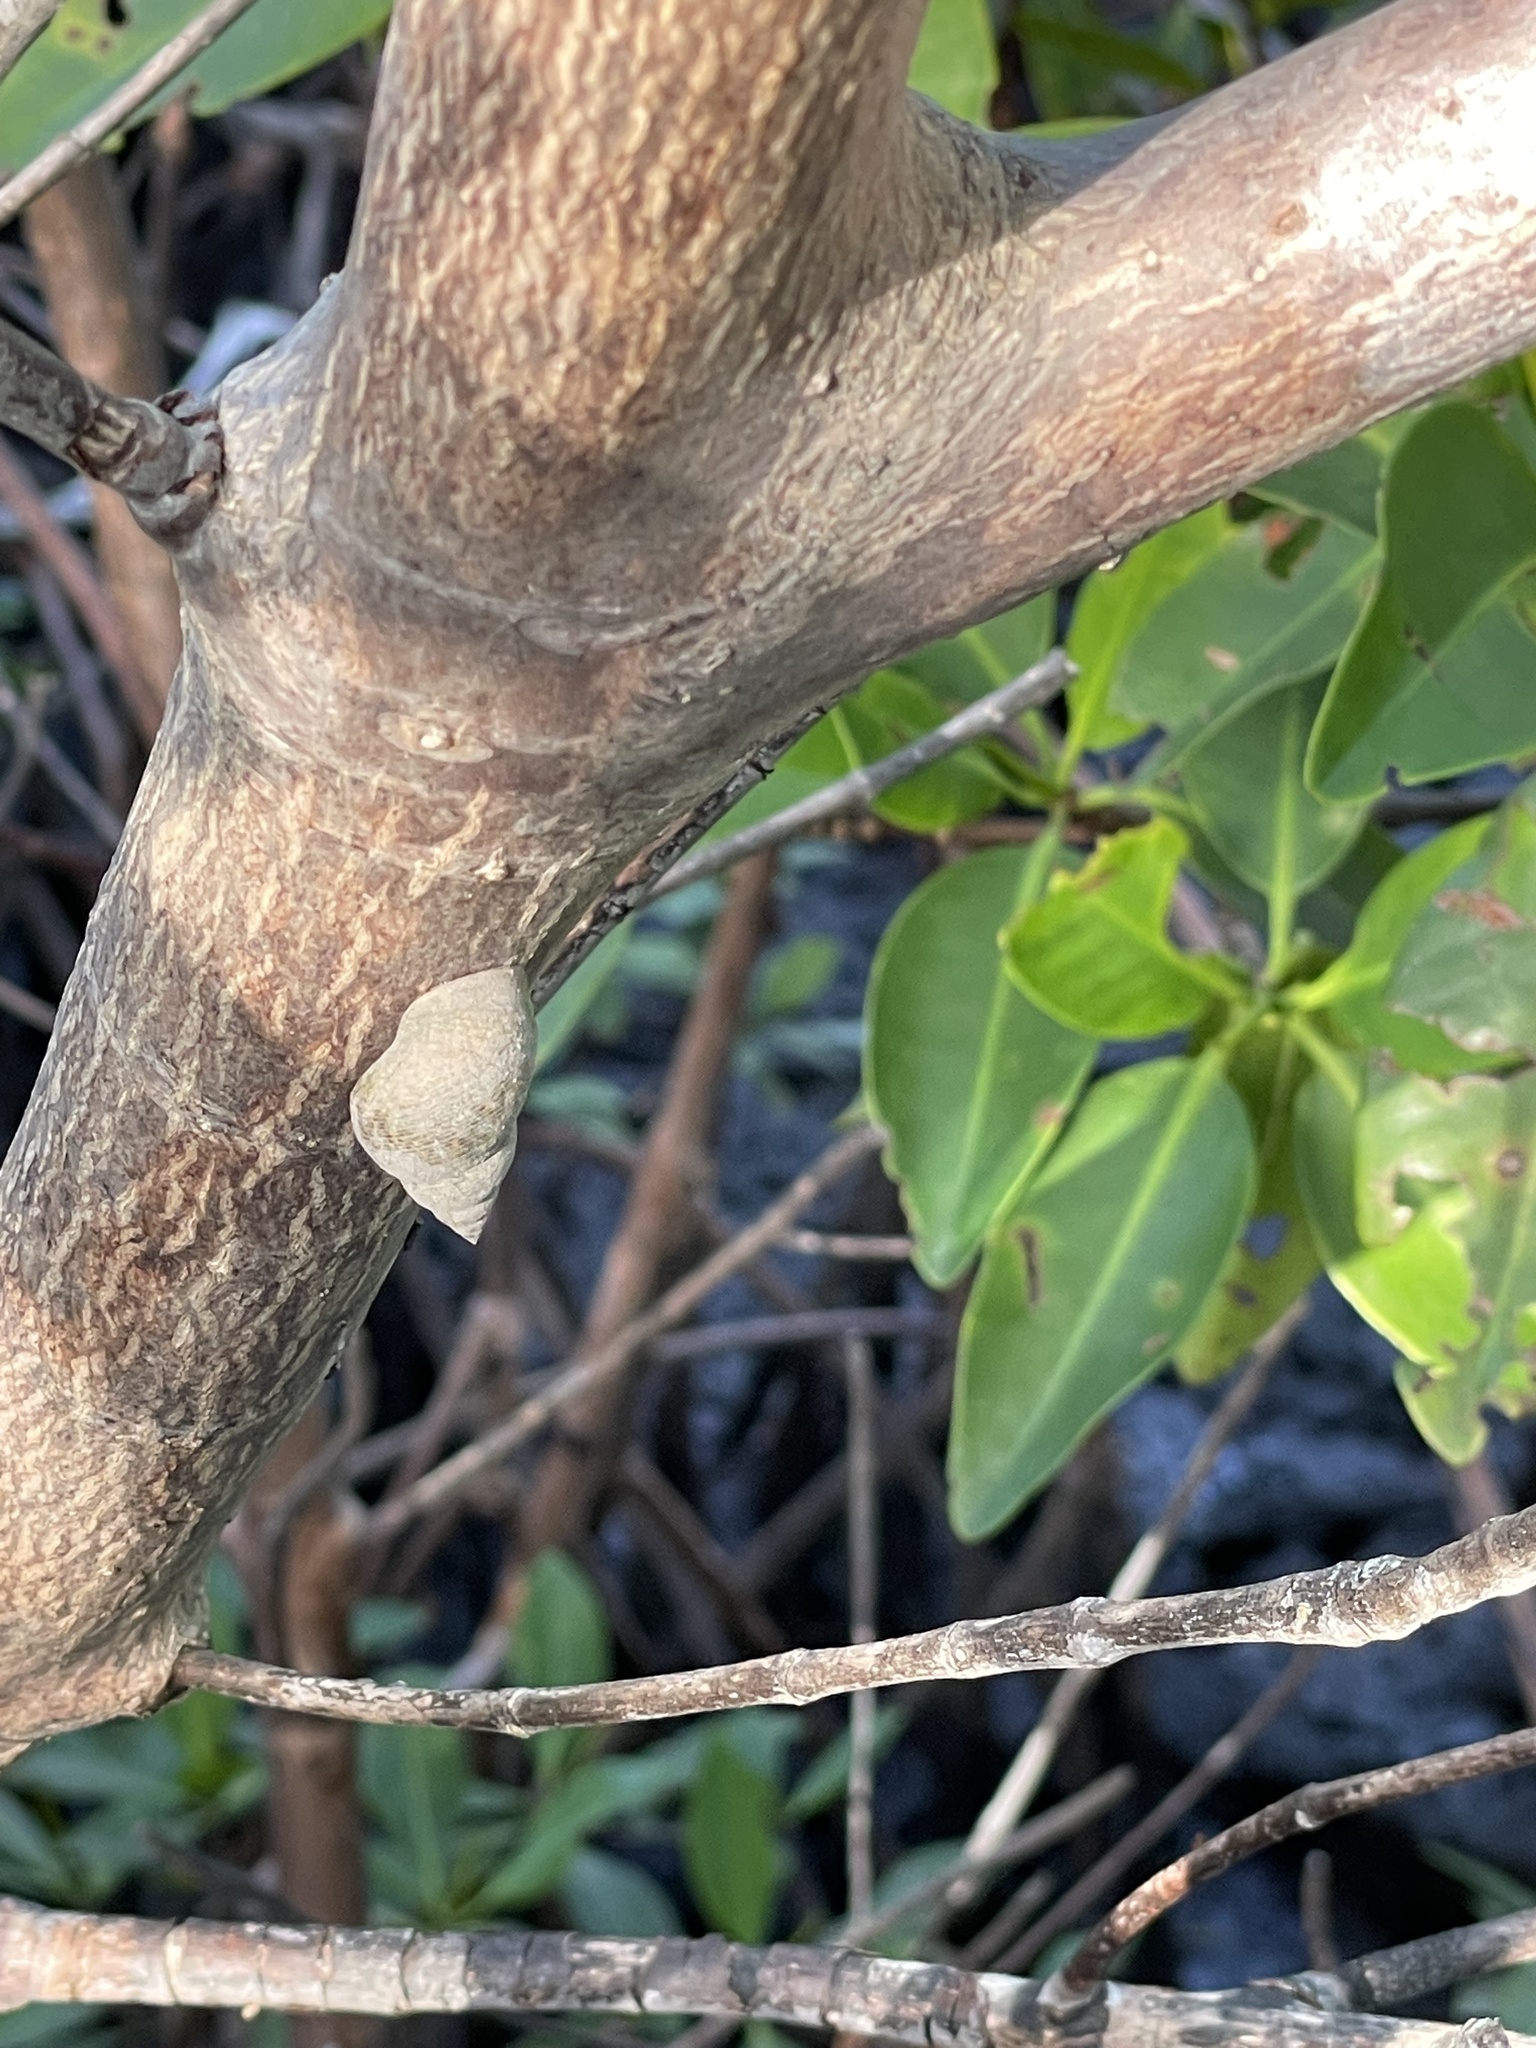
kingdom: Animalia
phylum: Mollusca
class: Gastropoda
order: Littorinimorpha
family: Littorinidae
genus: Littoraria
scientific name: Littoraria angulifera
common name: Mangrove periwinkle
